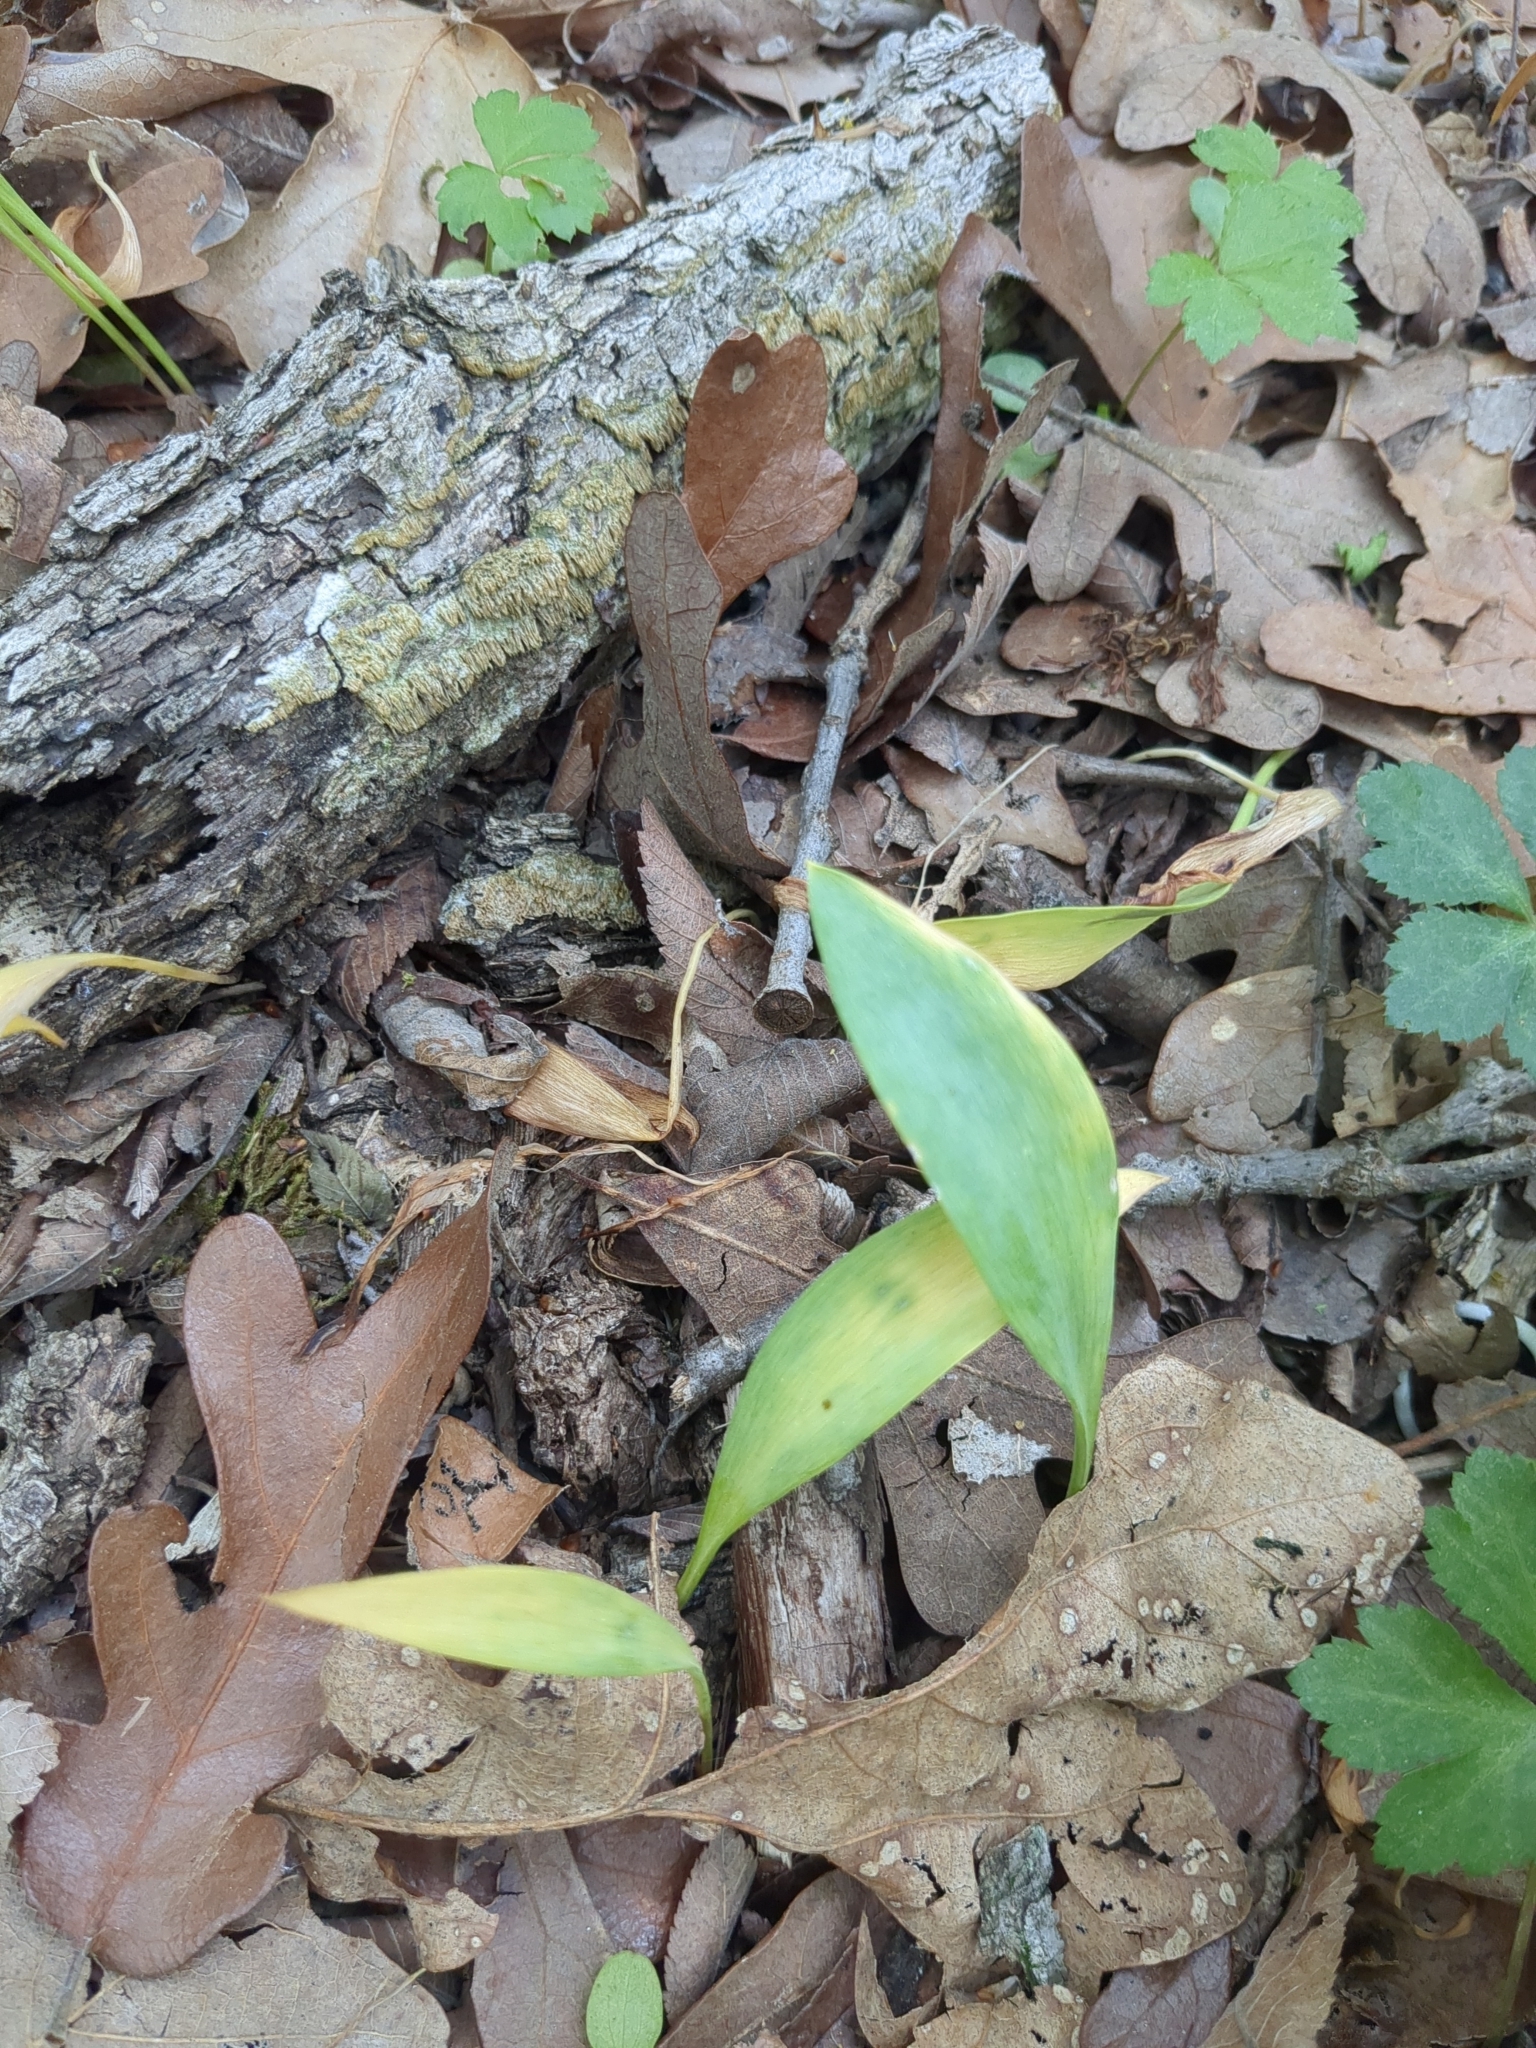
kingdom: Plantae
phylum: Tracheophyta
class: Liliopsida
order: Liliales
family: Liliaceae
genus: Erythronium
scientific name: Erythronium albidum
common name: White trout-lily
